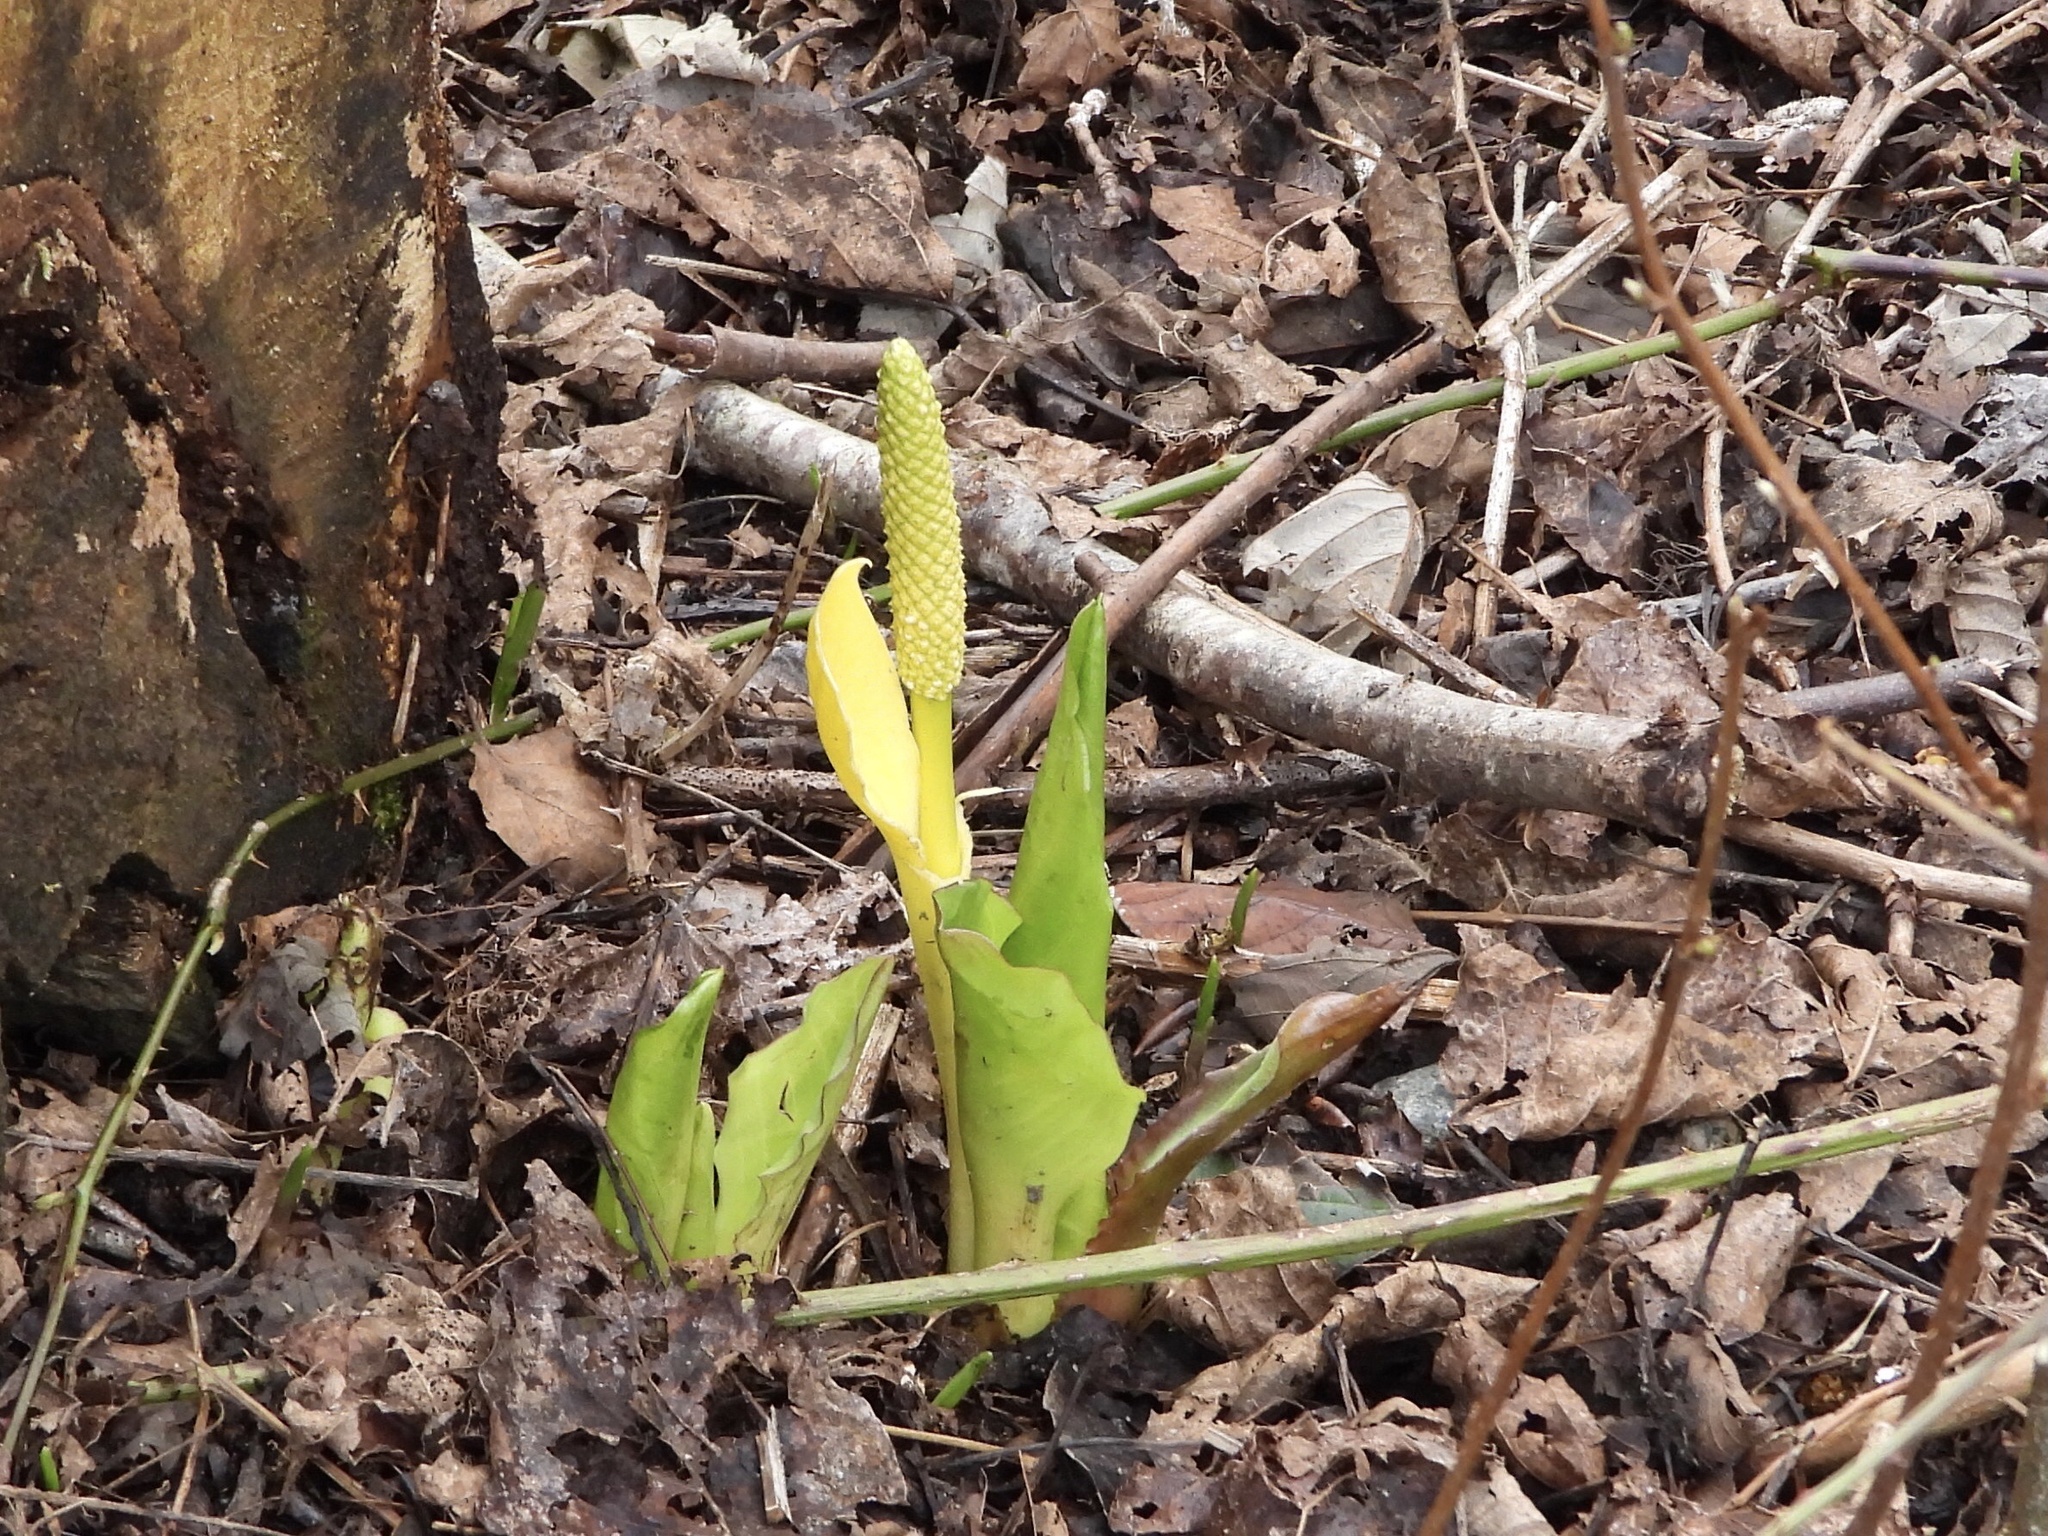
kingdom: Plantae
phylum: Tracheophyta
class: Liliopsida
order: Alismatales
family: Araceae
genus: Lysichiton
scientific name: Lysichiton americanus
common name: American skunk cabbage
